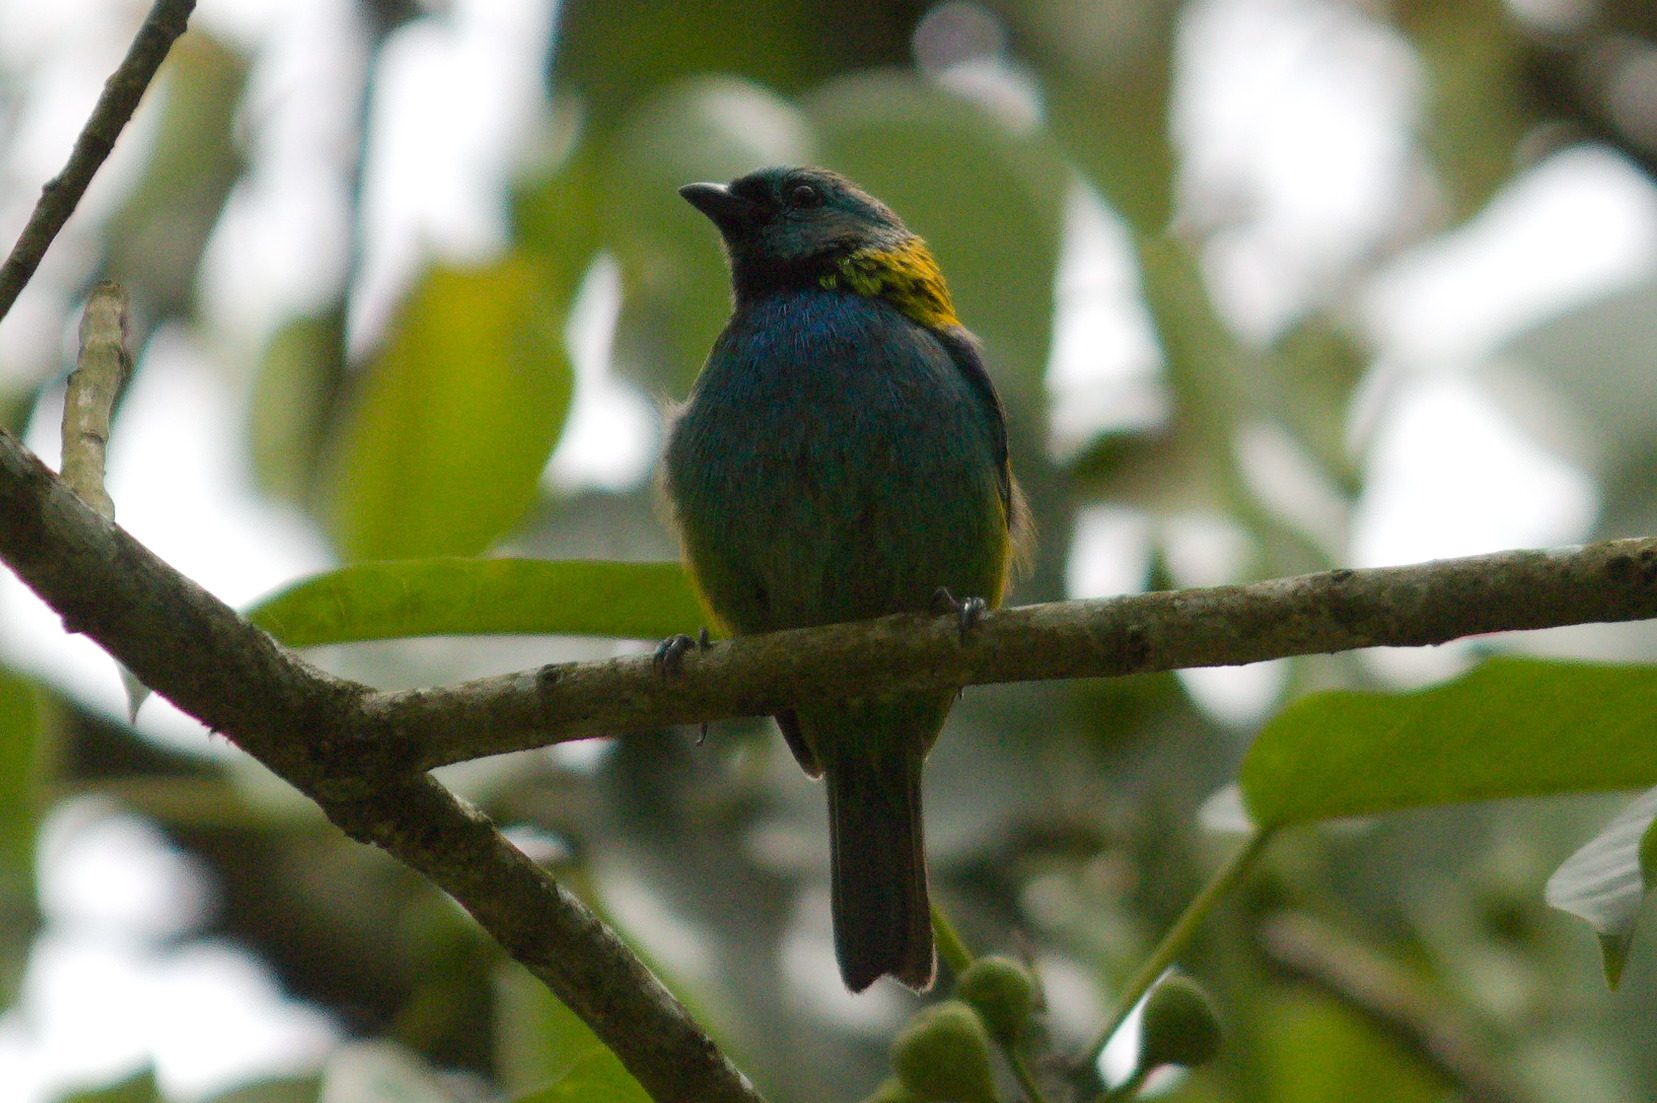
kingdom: Animalia
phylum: Chordata
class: Aves
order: Passeriformes
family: Thraupidae
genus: Tangara
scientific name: Tangara seledon
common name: Green-headed tanager
